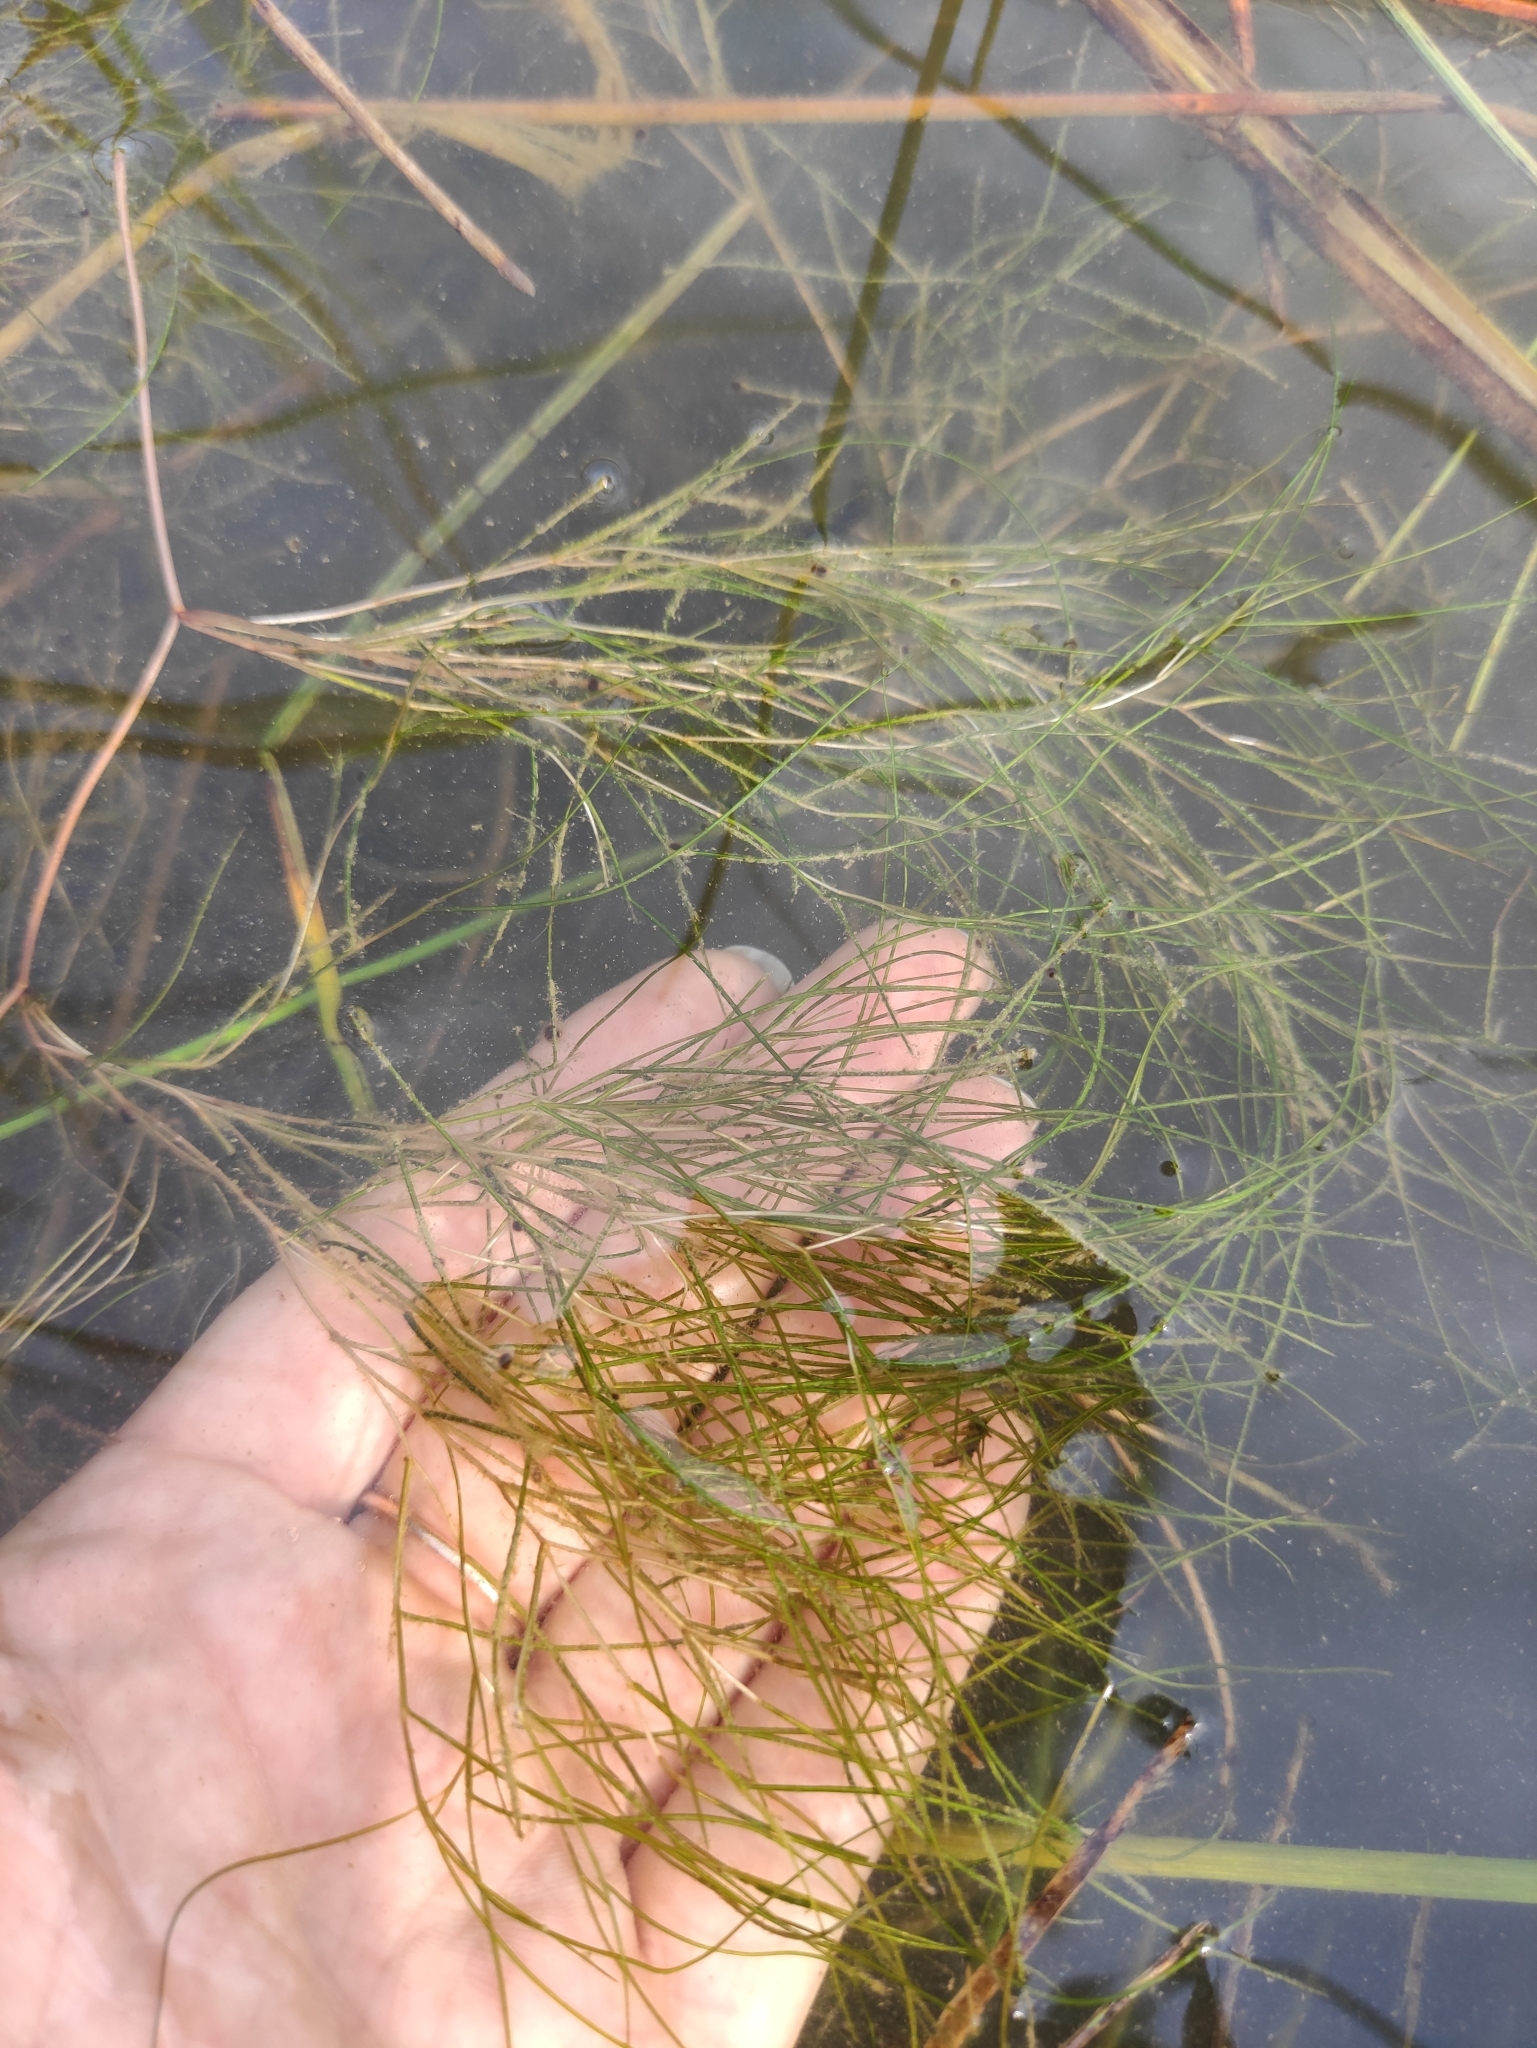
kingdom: Plantae
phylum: Tracheophyta
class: Liliopsida
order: Alismatales
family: Potamogetonaceae
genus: Stuckenia
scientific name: Stuckenia pectinata
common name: Sago pondweed
